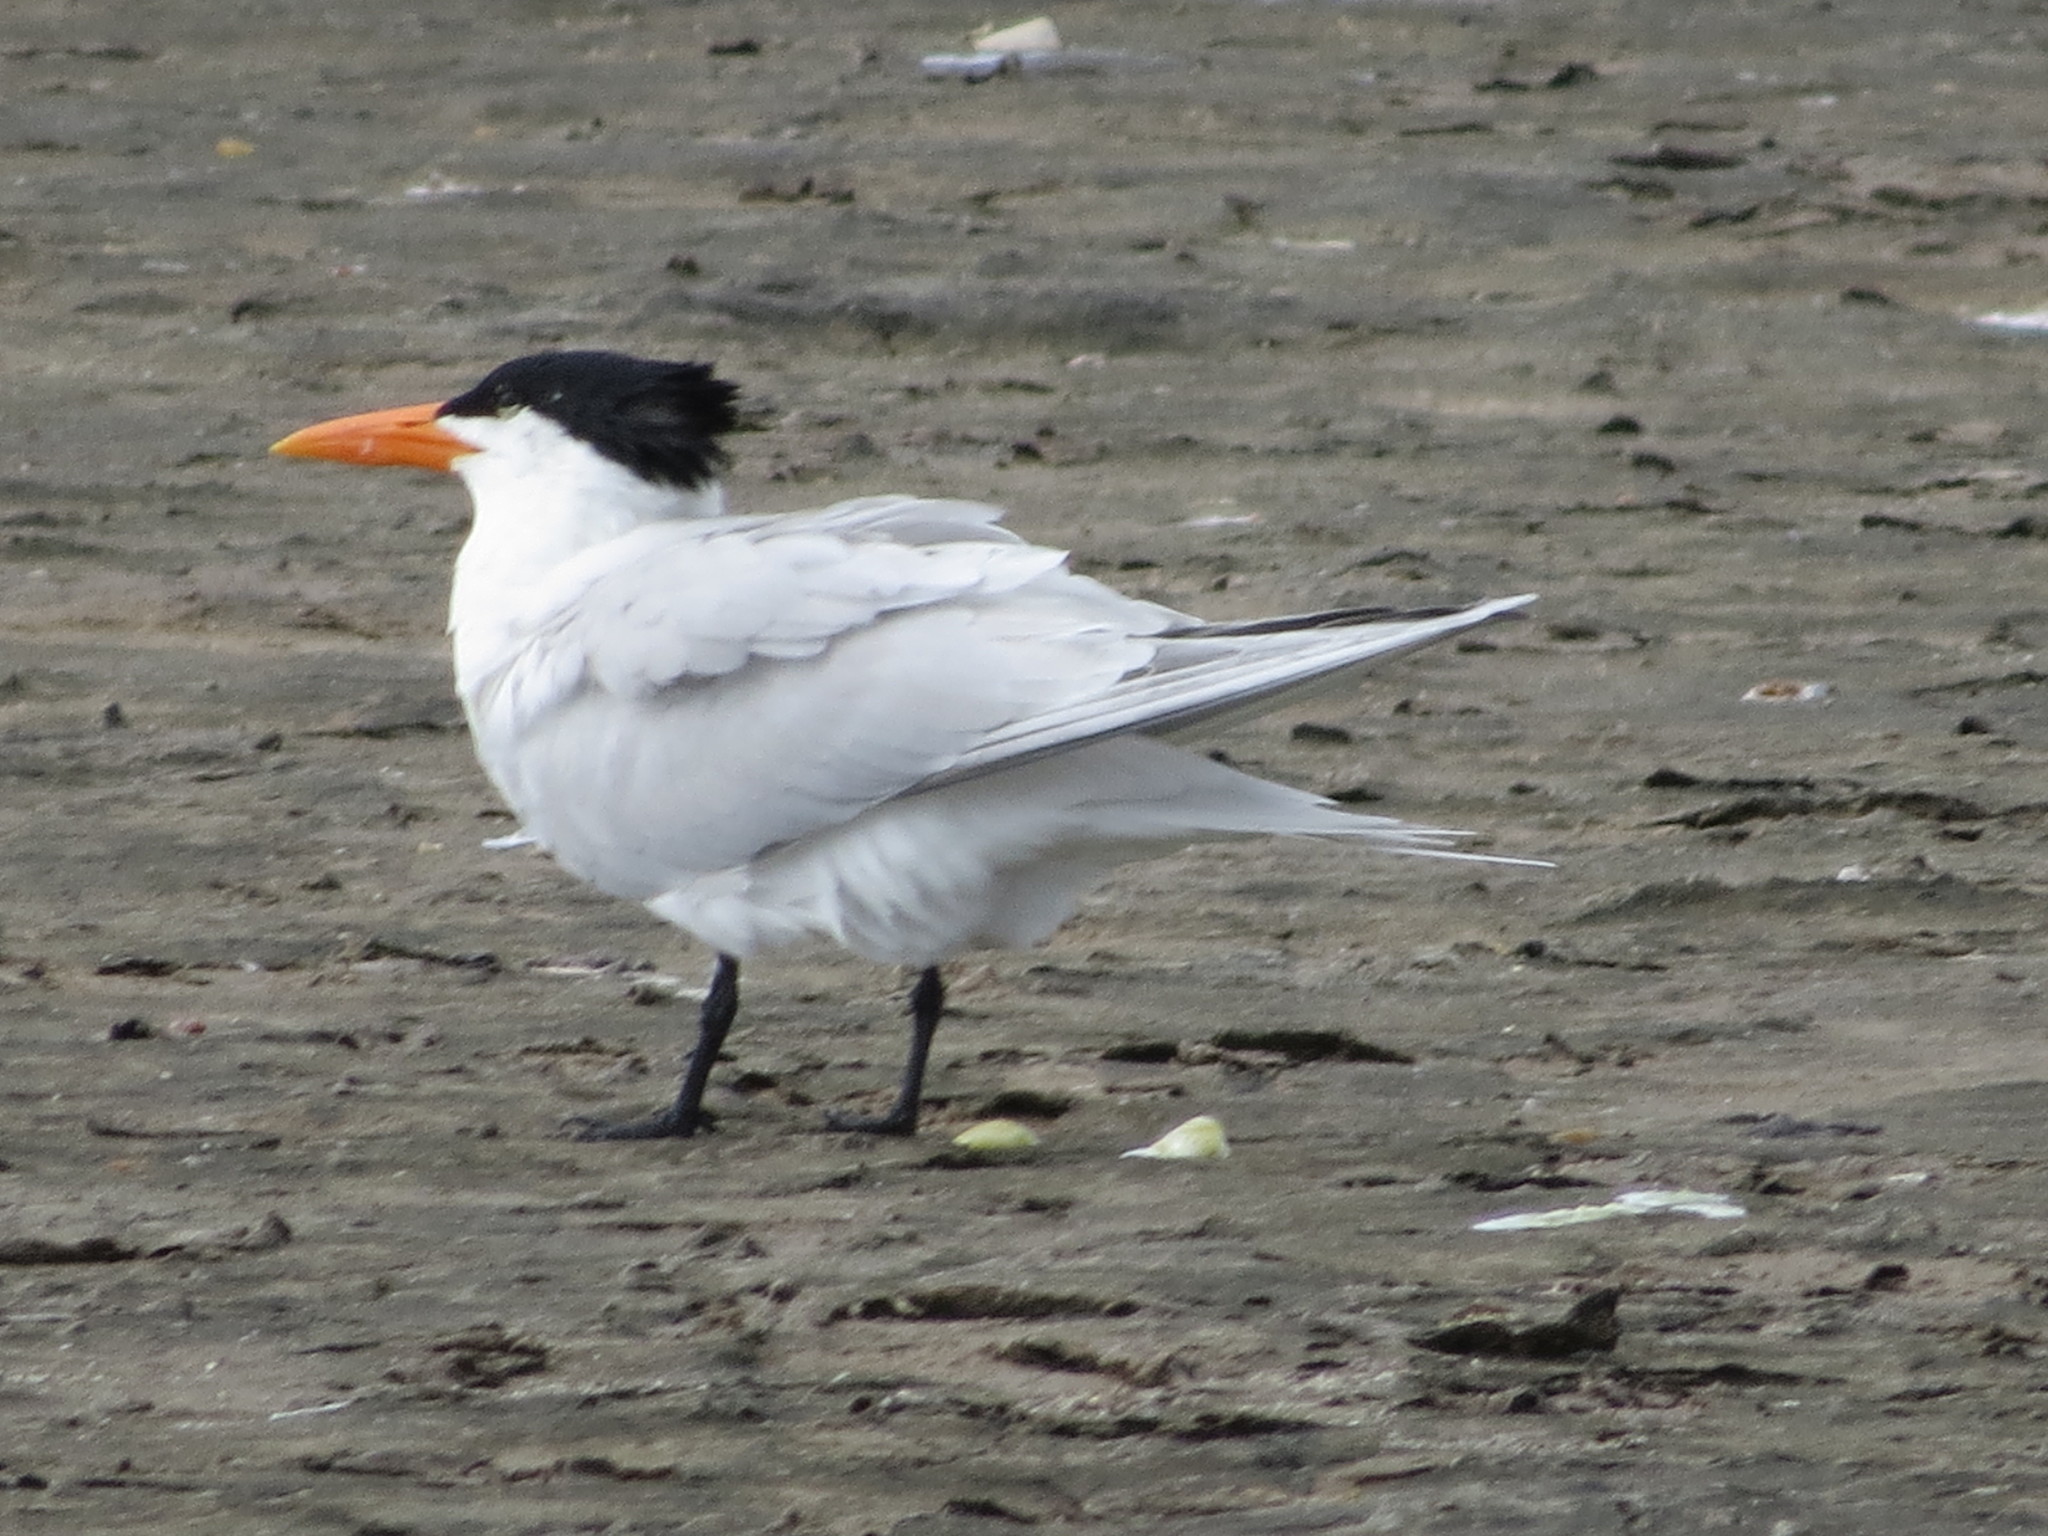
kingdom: Animalia
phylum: Chordata
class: Aves
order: Charadriiformes
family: Laridae
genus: Thalasseus
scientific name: Thalasseus maximus
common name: Royal tern
